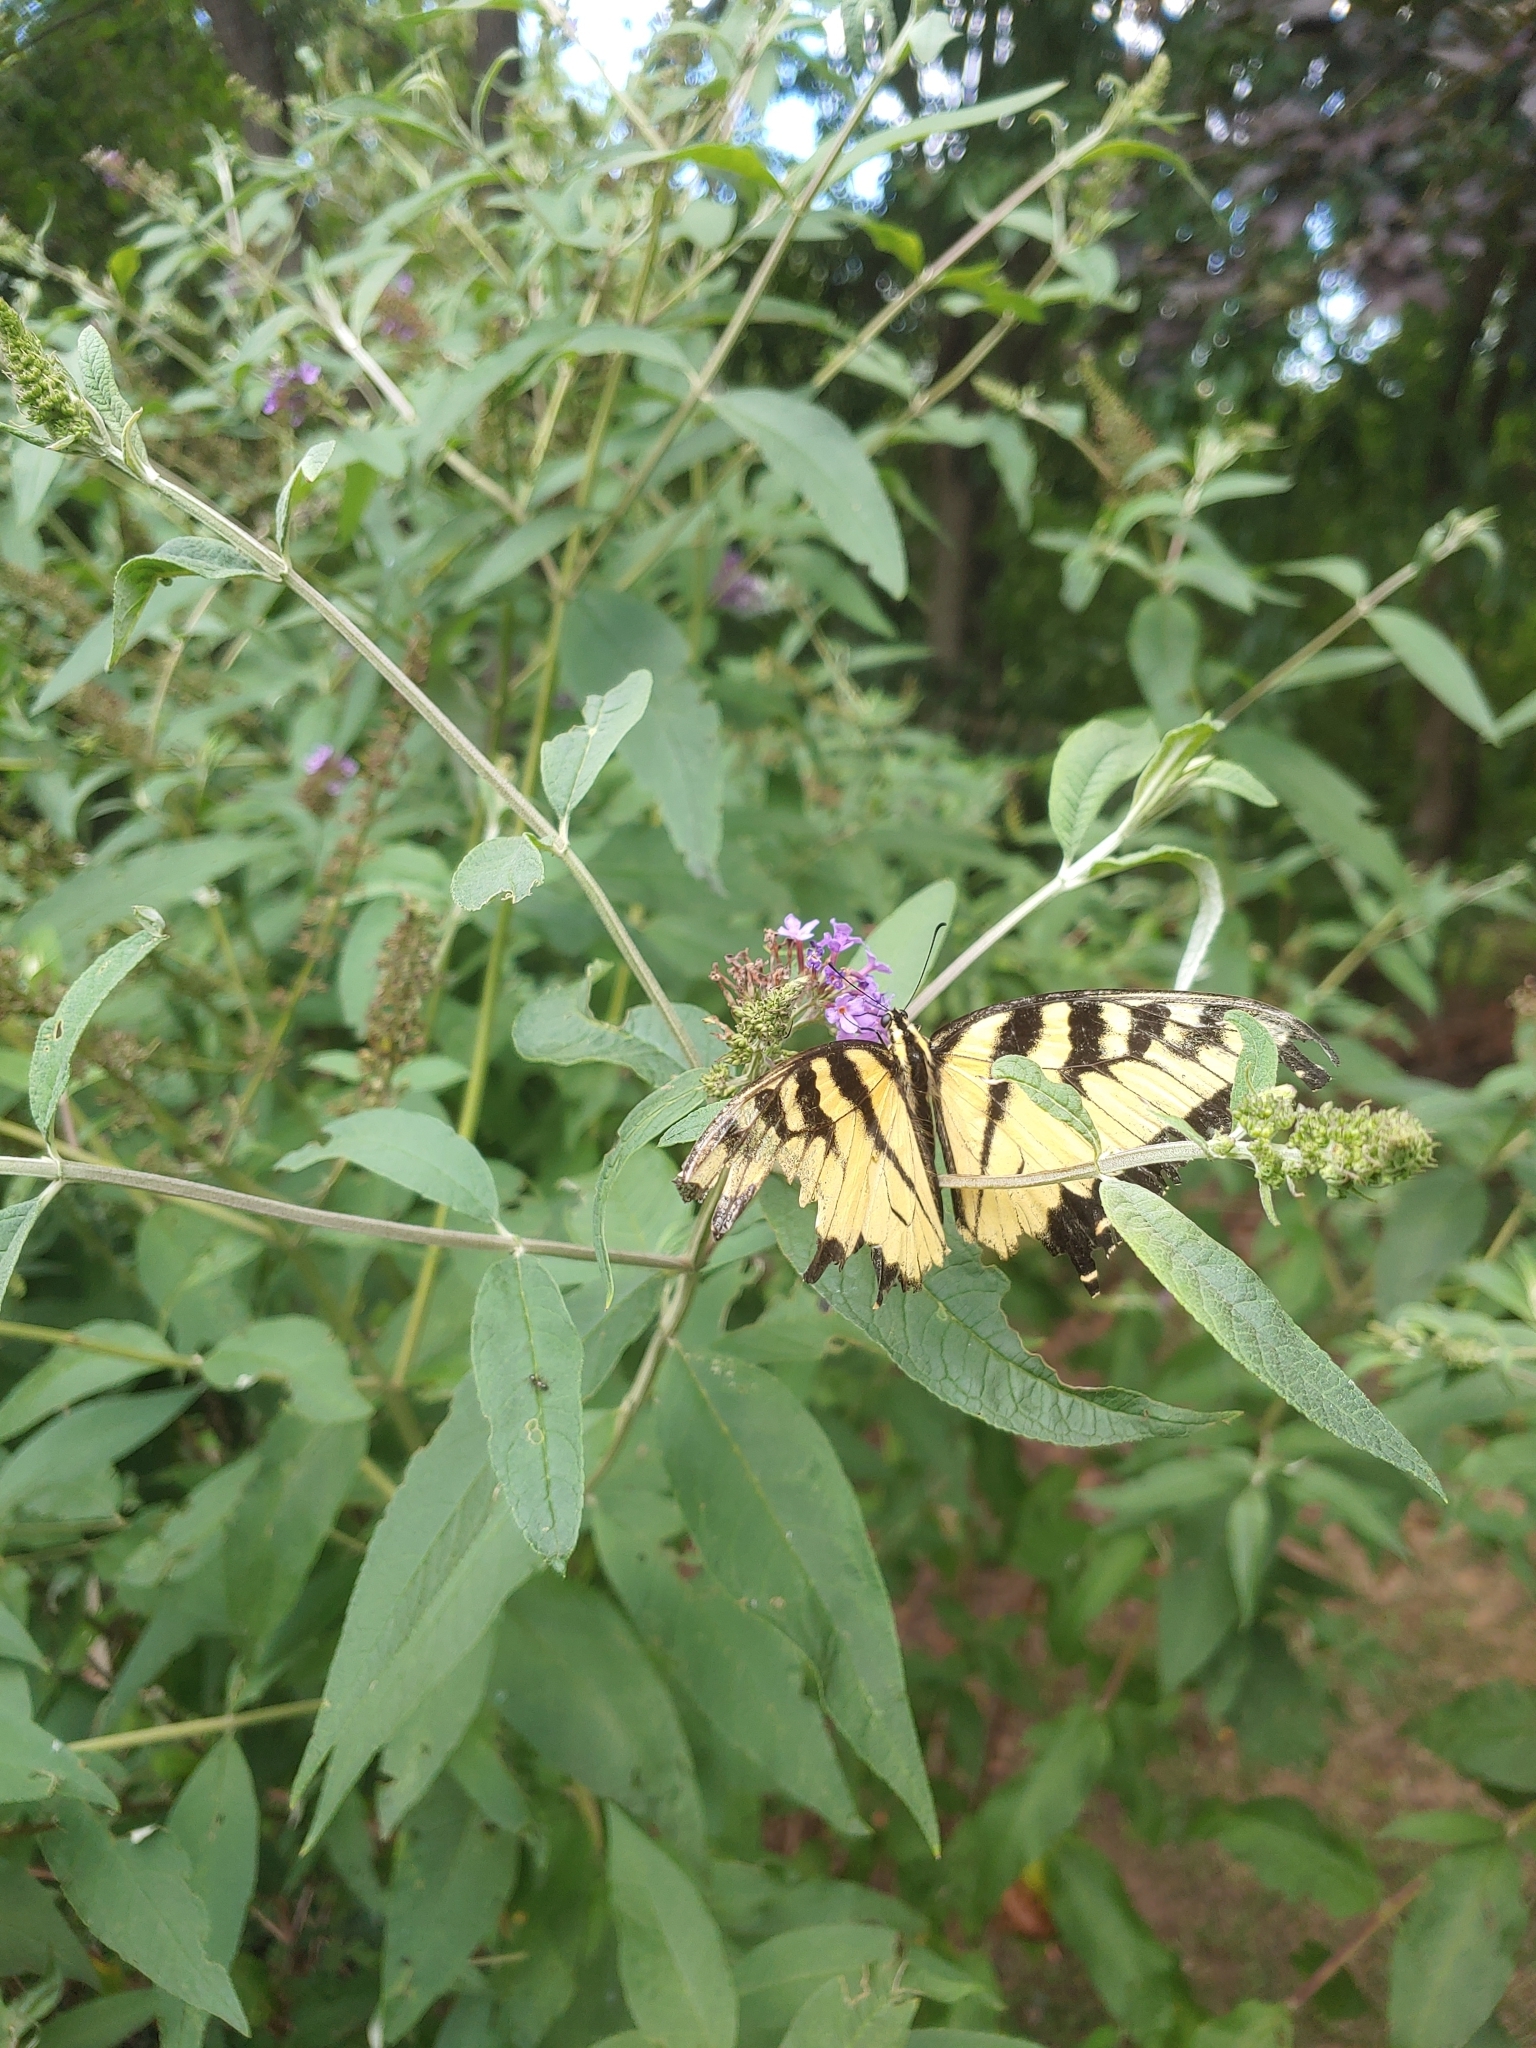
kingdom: Animalia
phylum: Arthropoda
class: Insecta
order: Lepidoptera
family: Papilionidae
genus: Papilio
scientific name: Papilio glaucus
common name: Tiger swallowtail
